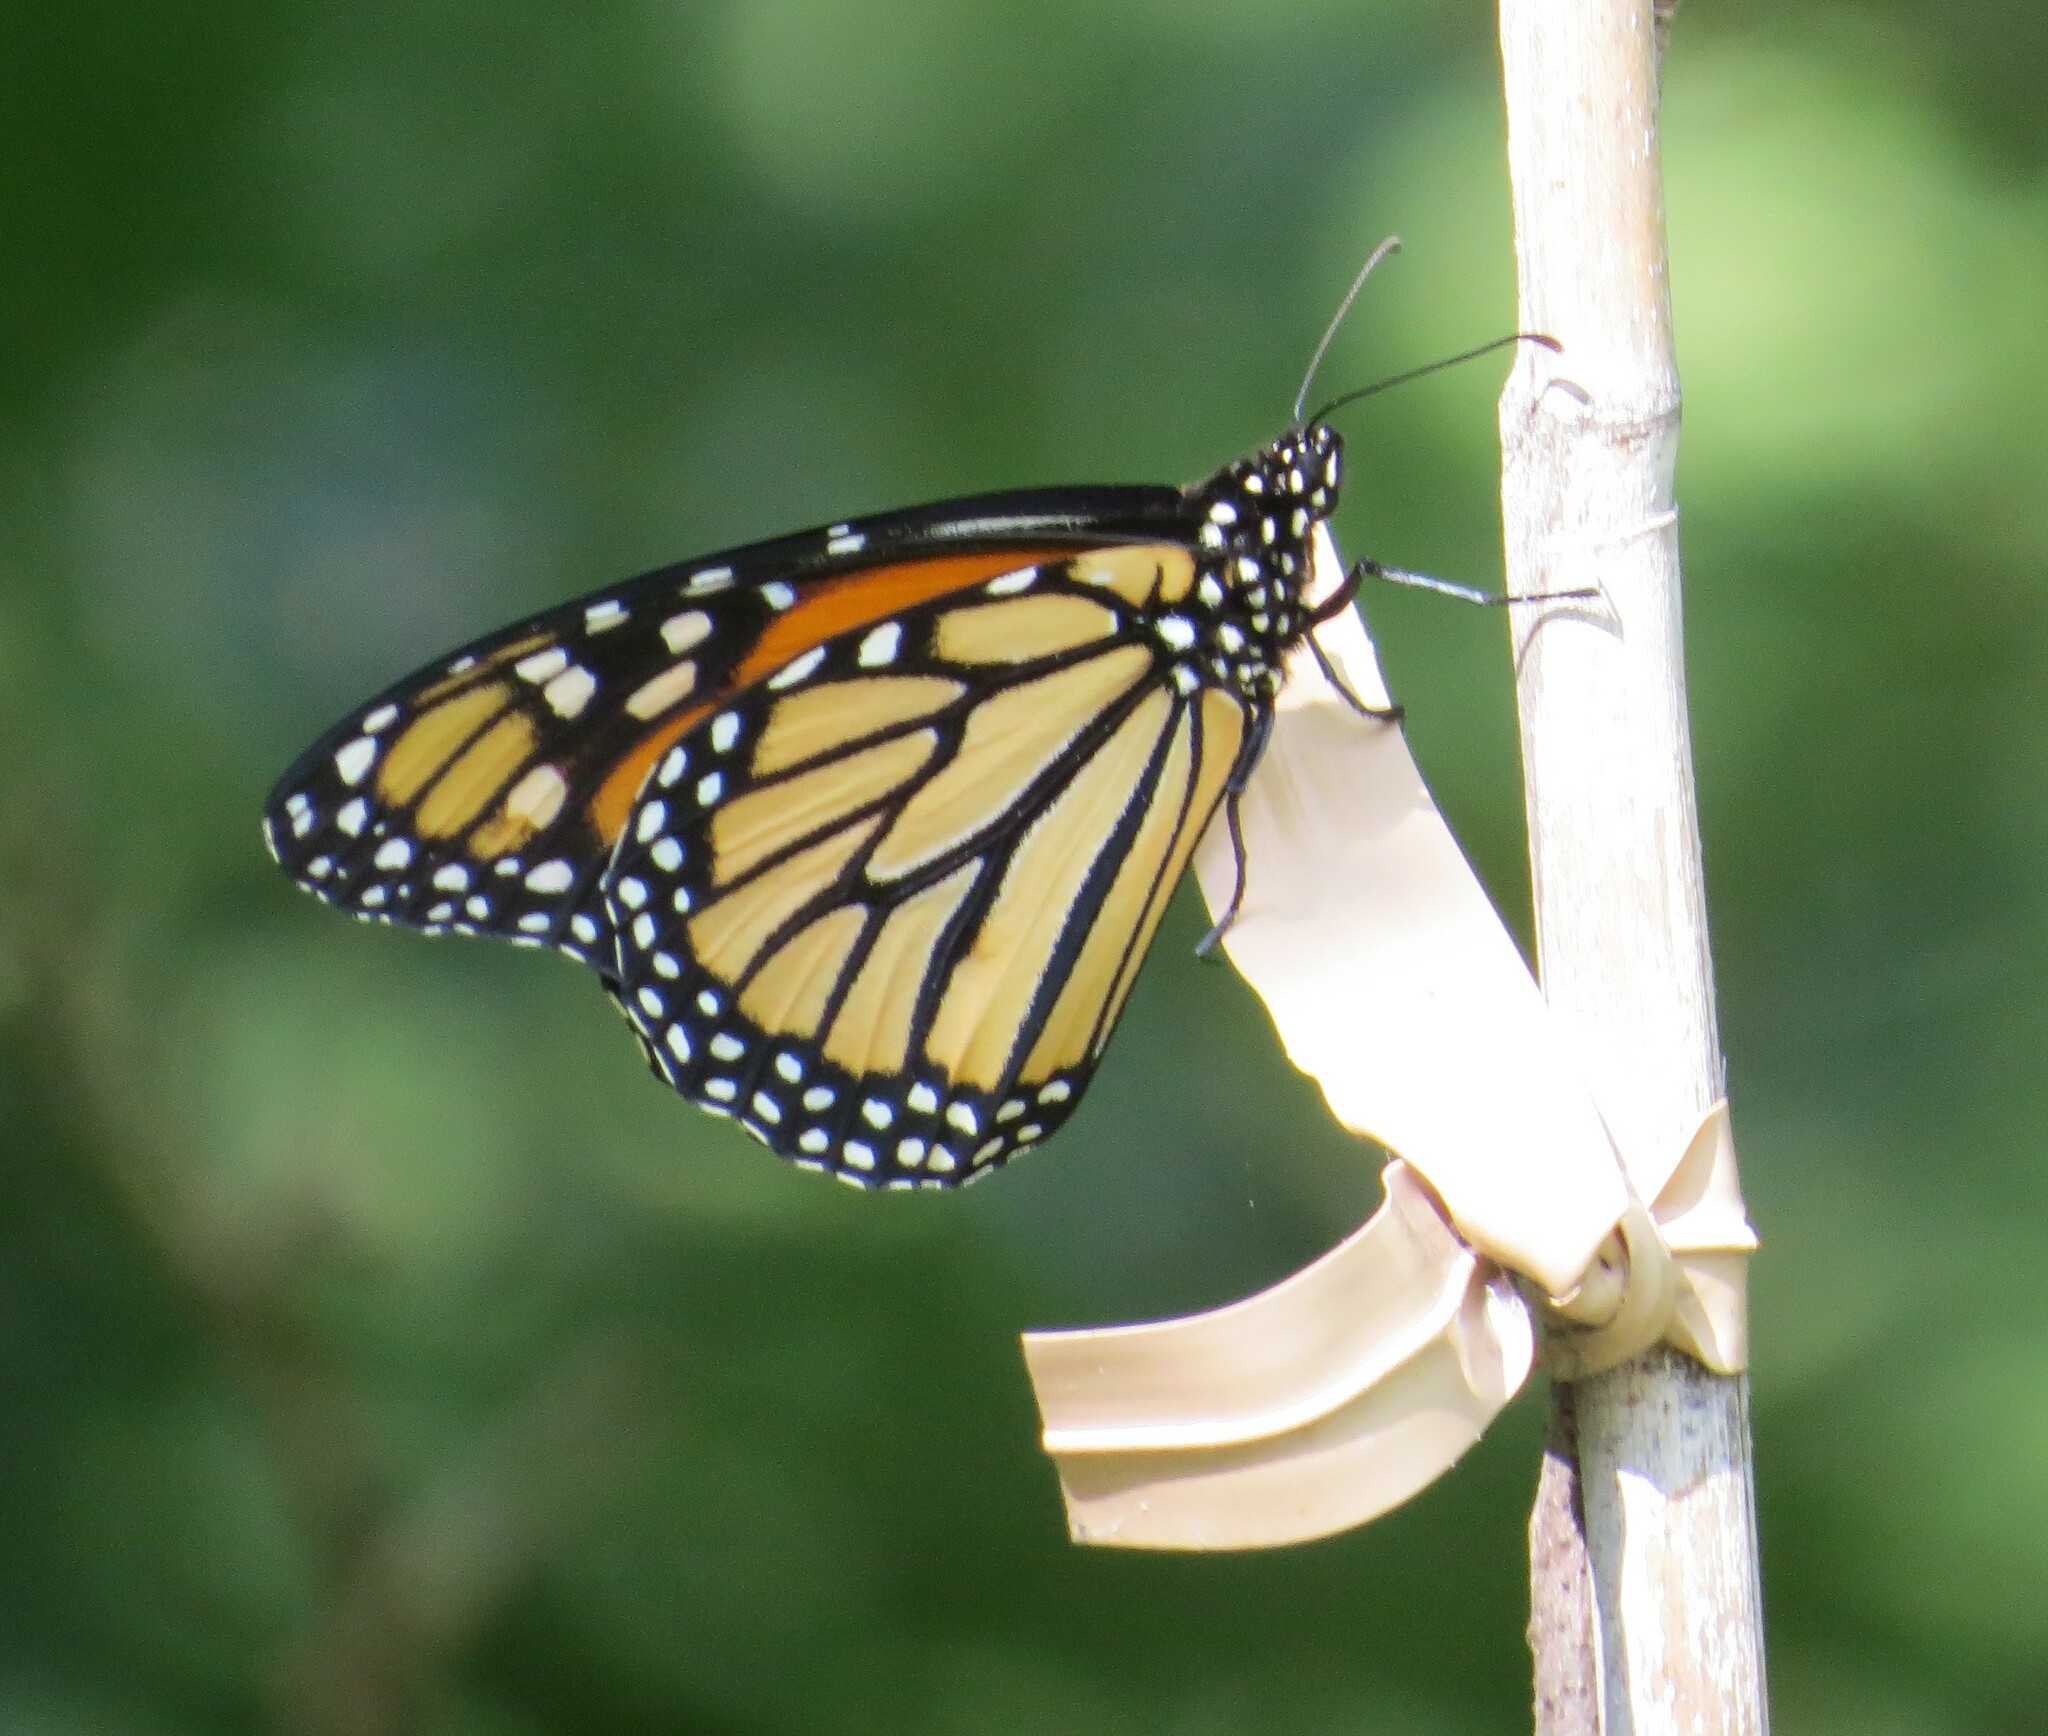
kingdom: Animalia
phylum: Arthropoda
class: Insecta
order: Lepidoptera
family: Nymphalidae
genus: Danaus
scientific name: Danaus plexippus
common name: Monarch
